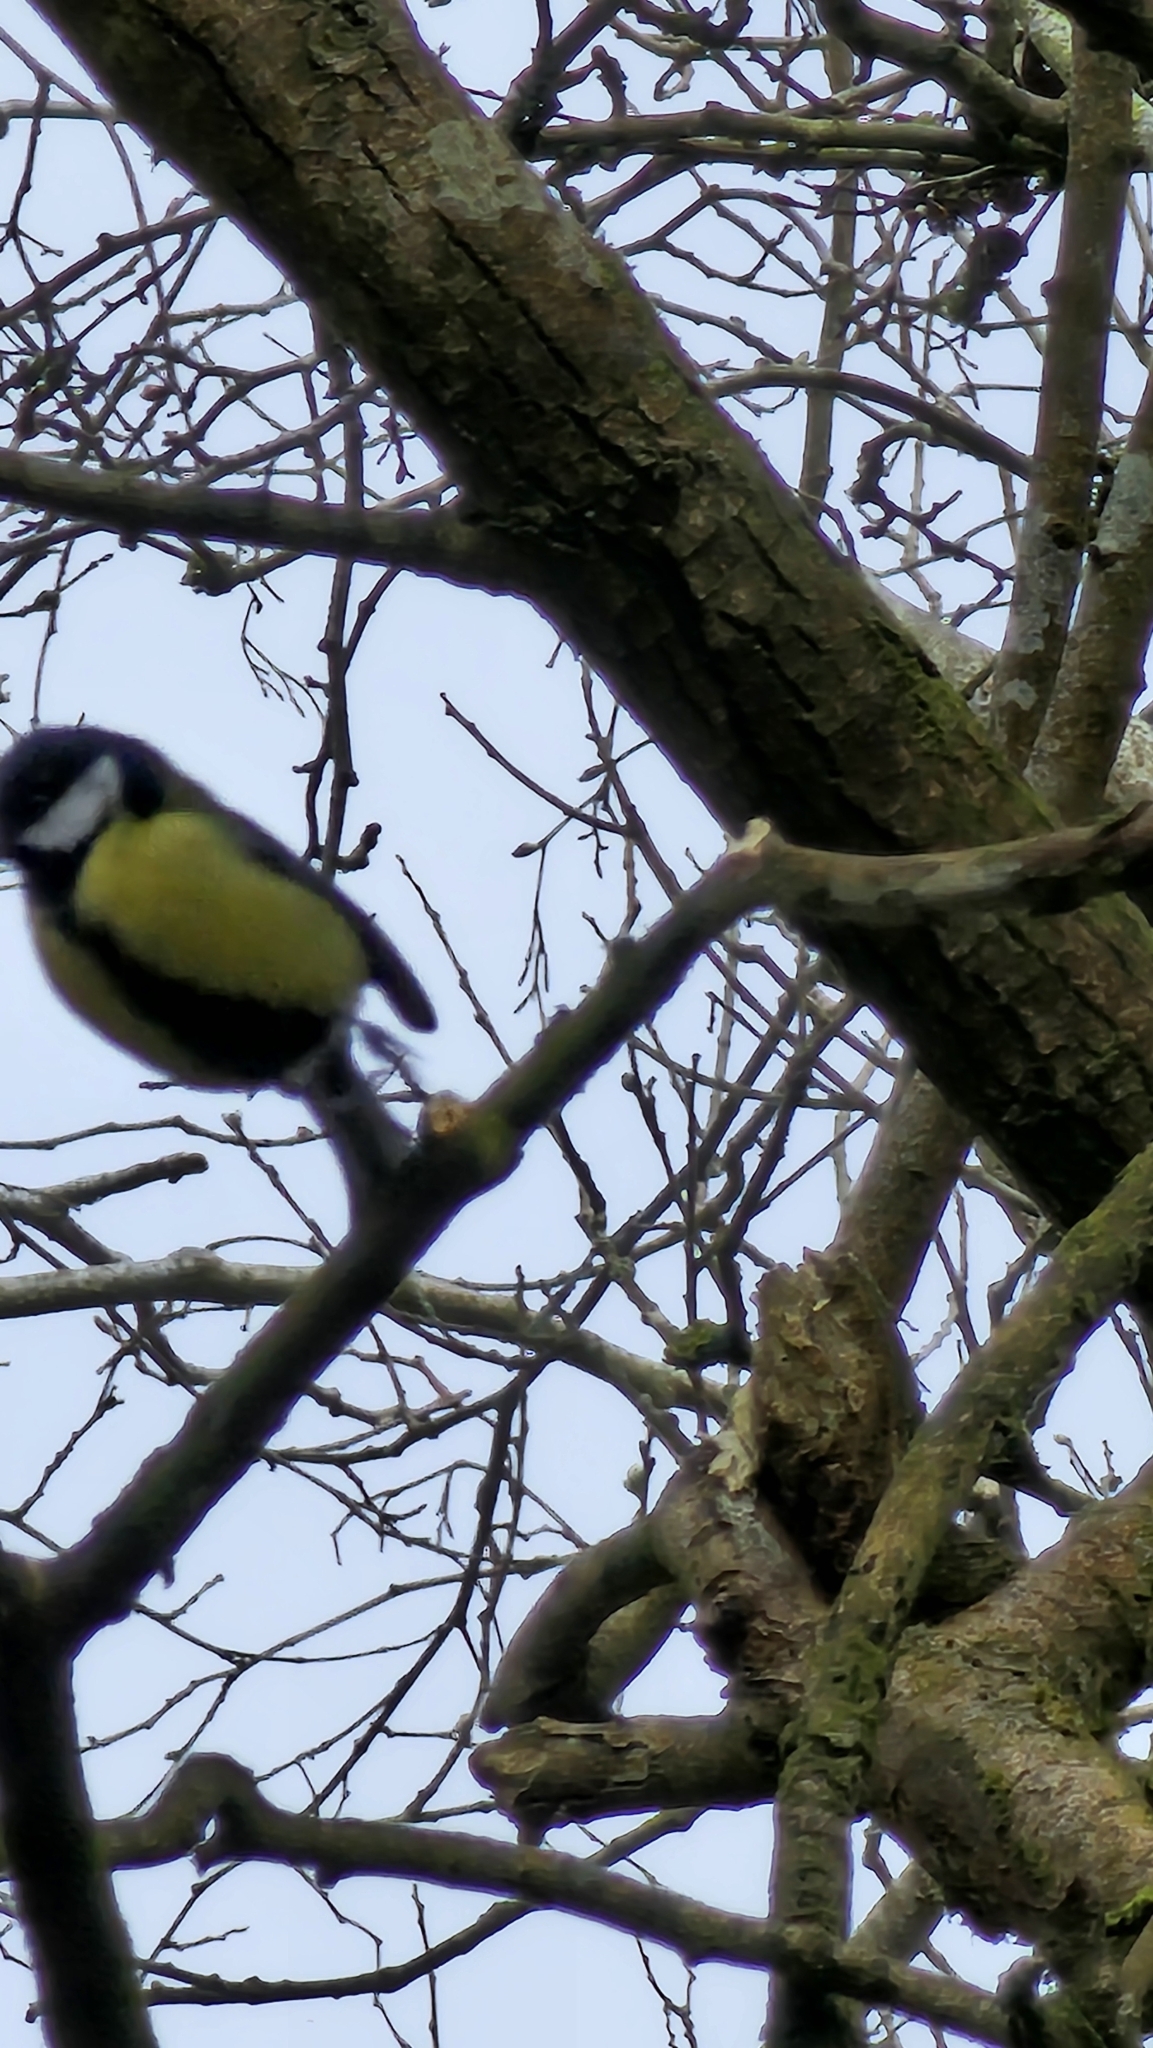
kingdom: Animalia
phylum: Chordata
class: Aves
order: Passeriformes
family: Paridae
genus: Parus
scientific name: Parus major
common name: Great tit
